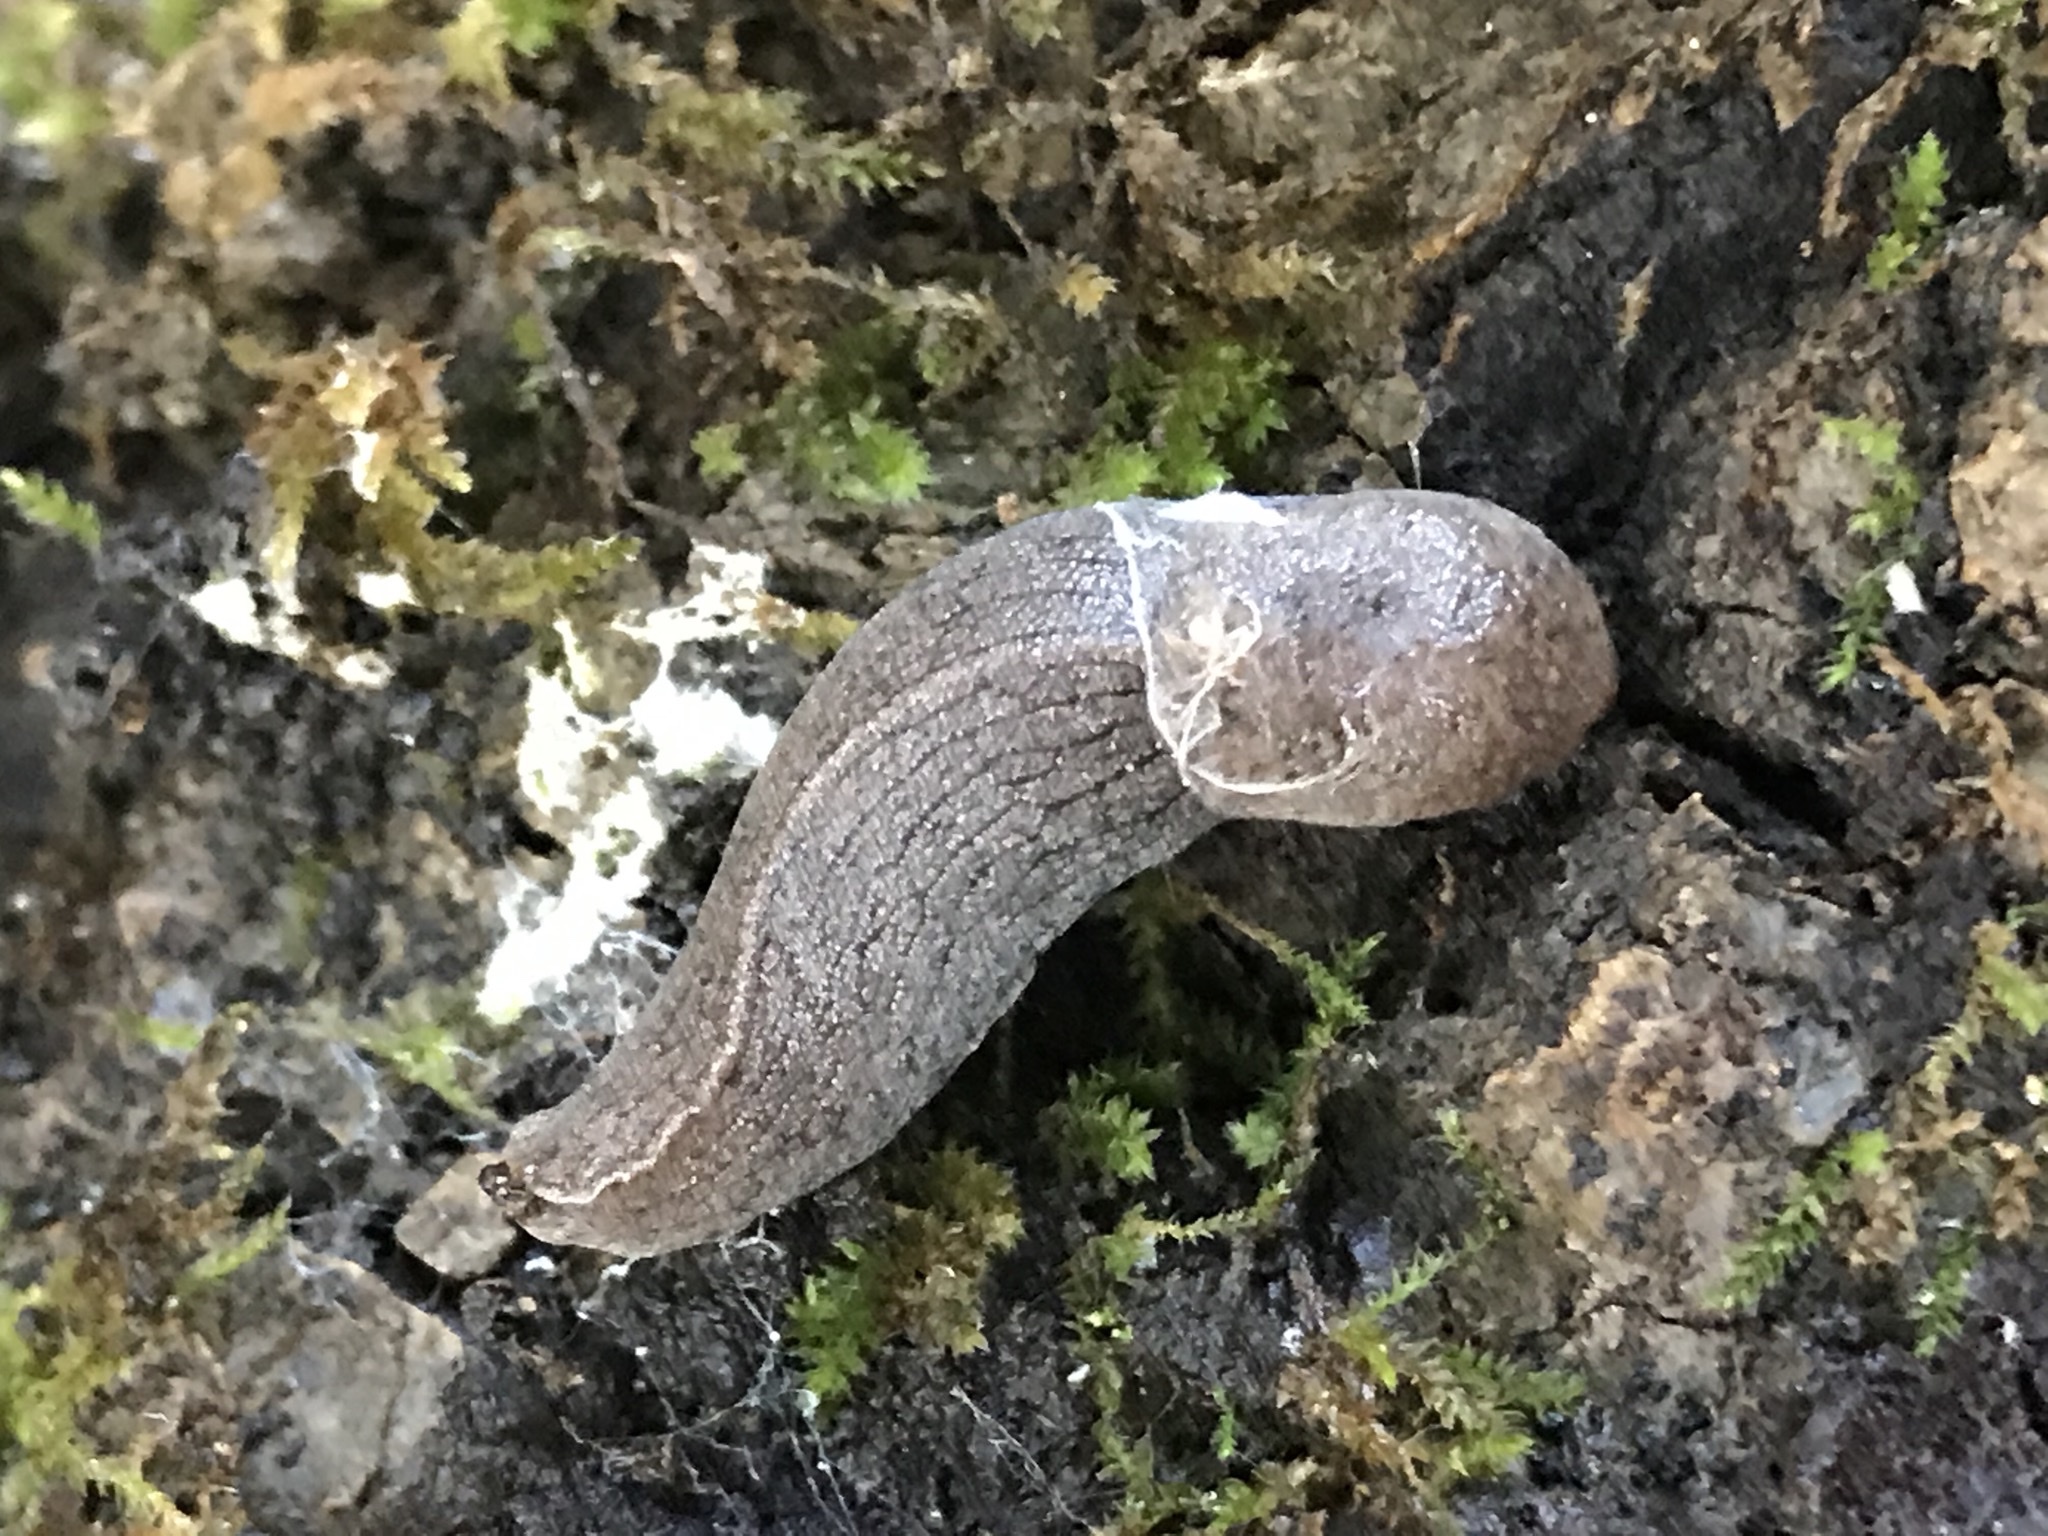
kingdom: Animalia
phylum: Mollusca
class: Gastropoda
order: Stylommatophora
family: Ariolimacidae
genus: Hesperarion
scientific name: Hesperarion niger
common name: Black western slug
